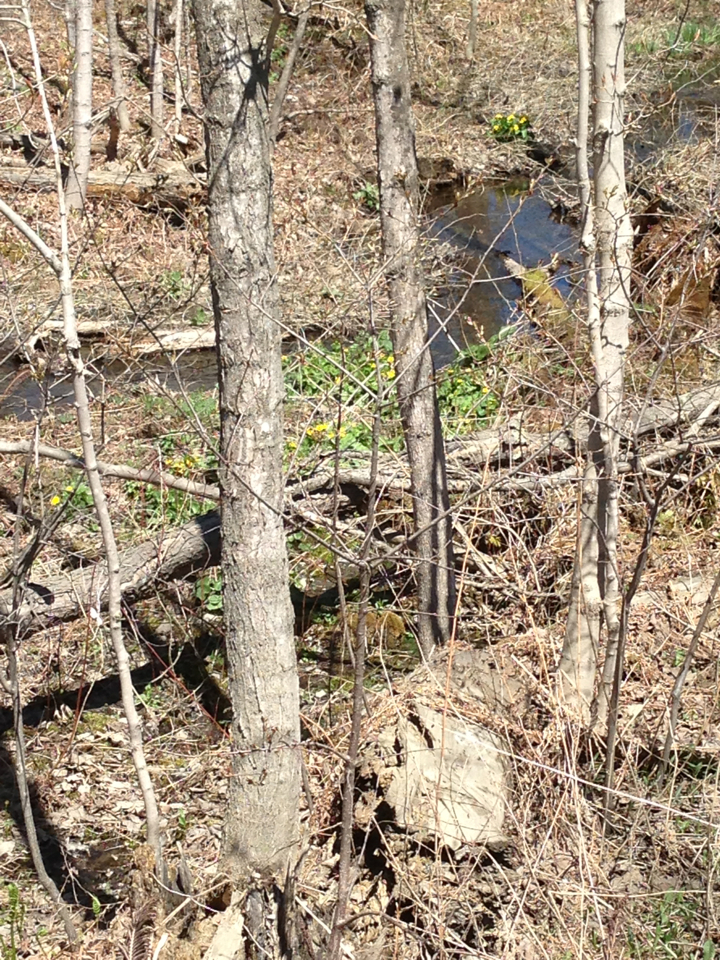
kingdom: Plantae
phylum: Tracheophyta
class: Magnoliopsida
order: Ranunculales
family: Ranunculaceae
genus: Caltha
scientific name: Caltha palustris
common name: Marsh marigold
